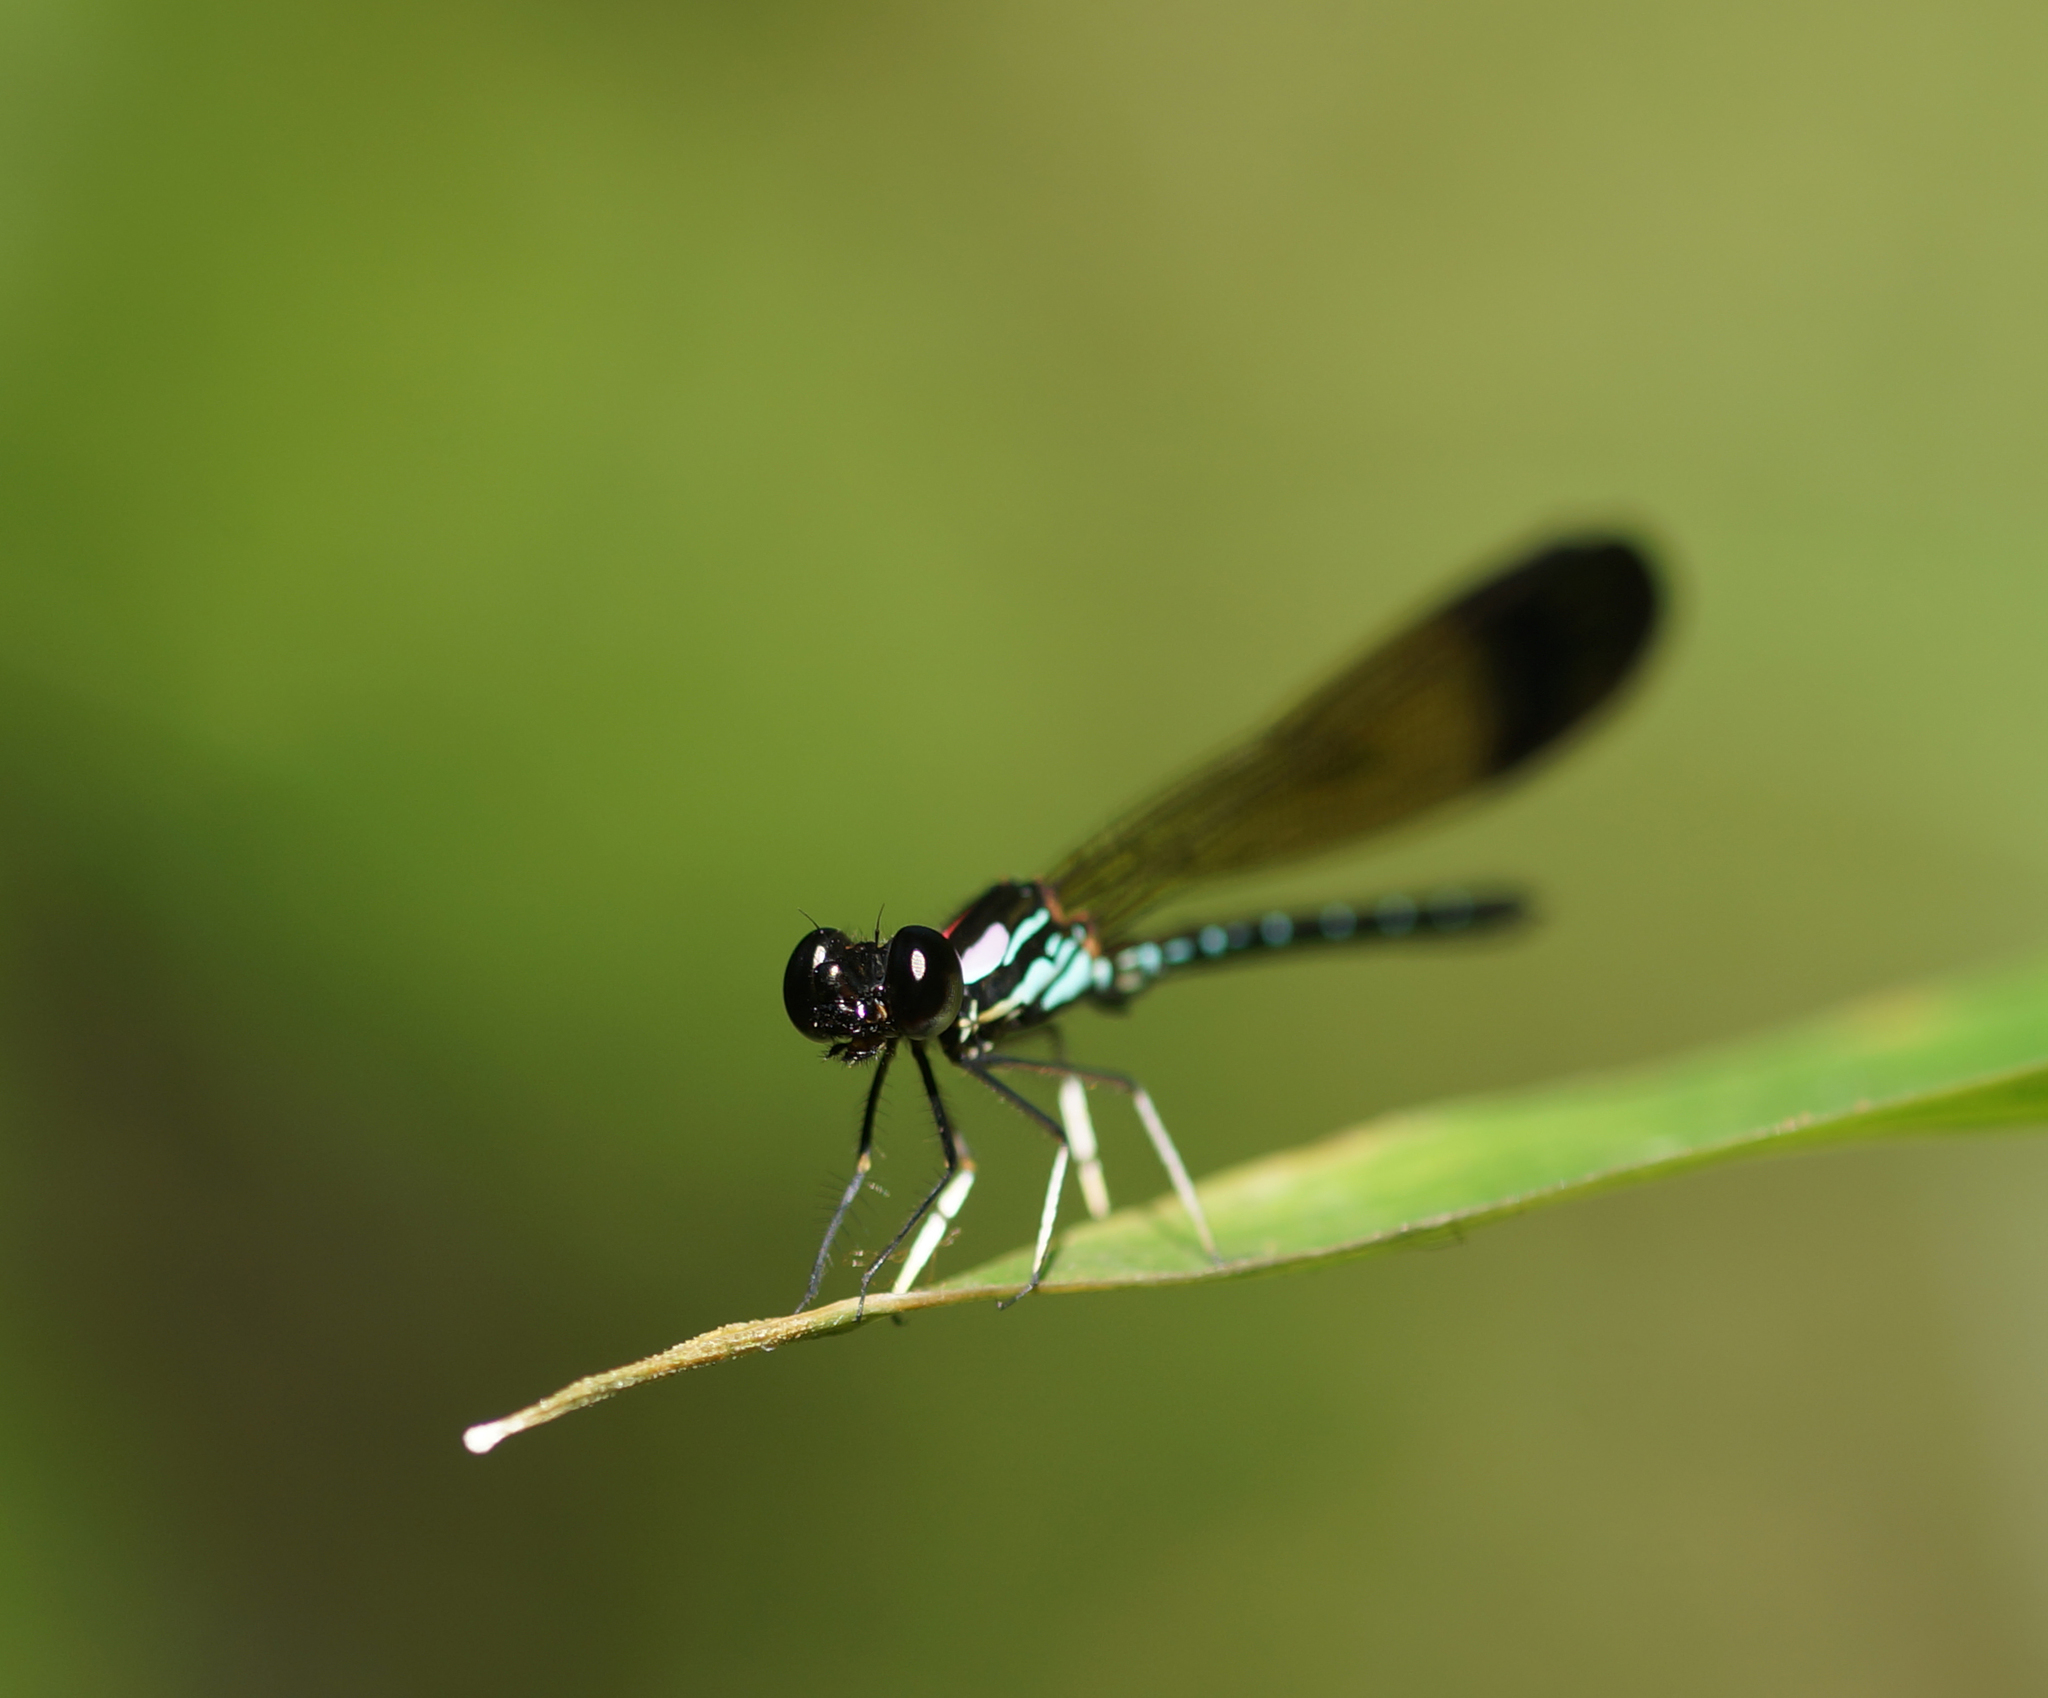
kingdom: Animalia
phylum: Arthropoda
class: Insecta
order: Odonata
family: Chlorocyphidae
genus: Heliocypha
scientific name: Heliocypha biforata
